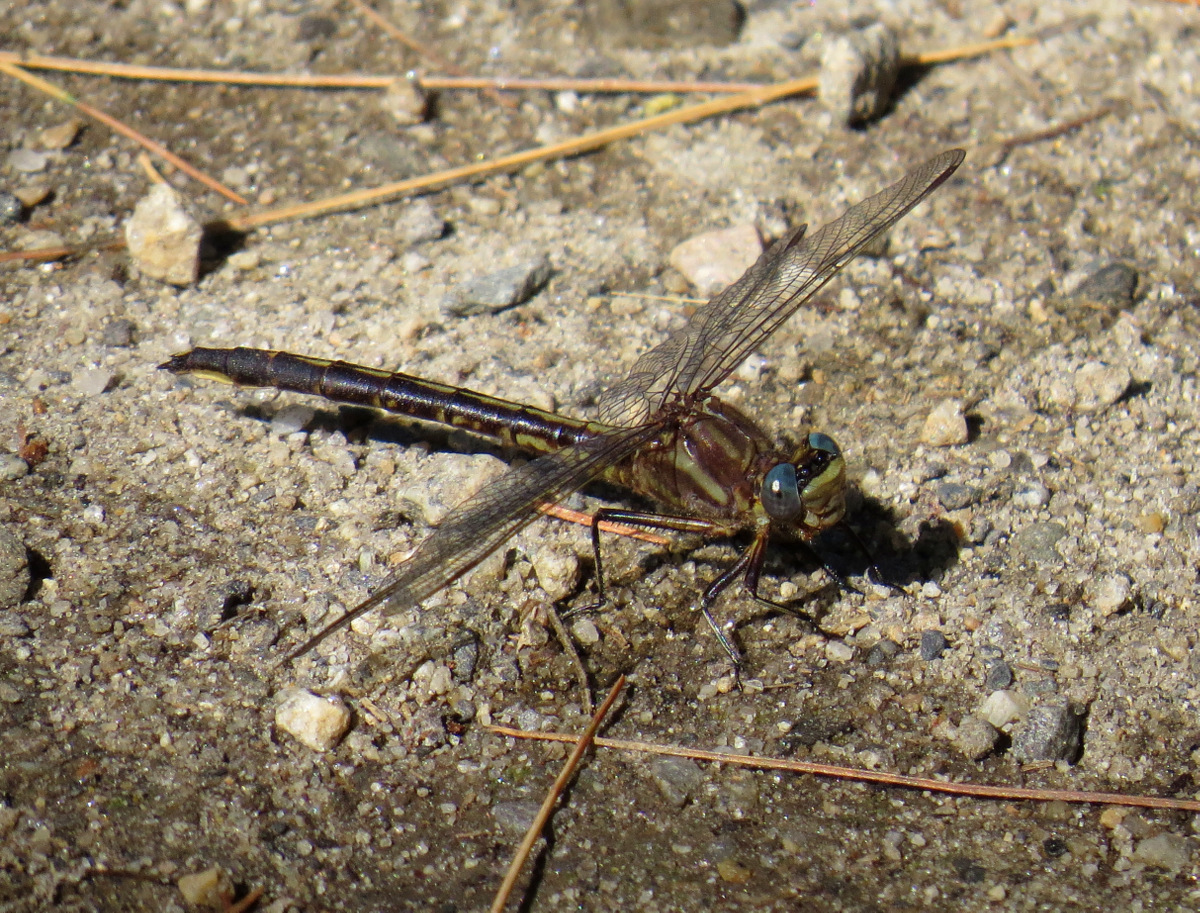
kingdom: Animalia
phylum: Arthropoda
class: Insecta
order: Odonata
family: Gomphidae
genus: Phanogomphus
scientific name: Phanogomphus exilis
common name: Lancet clubtail
